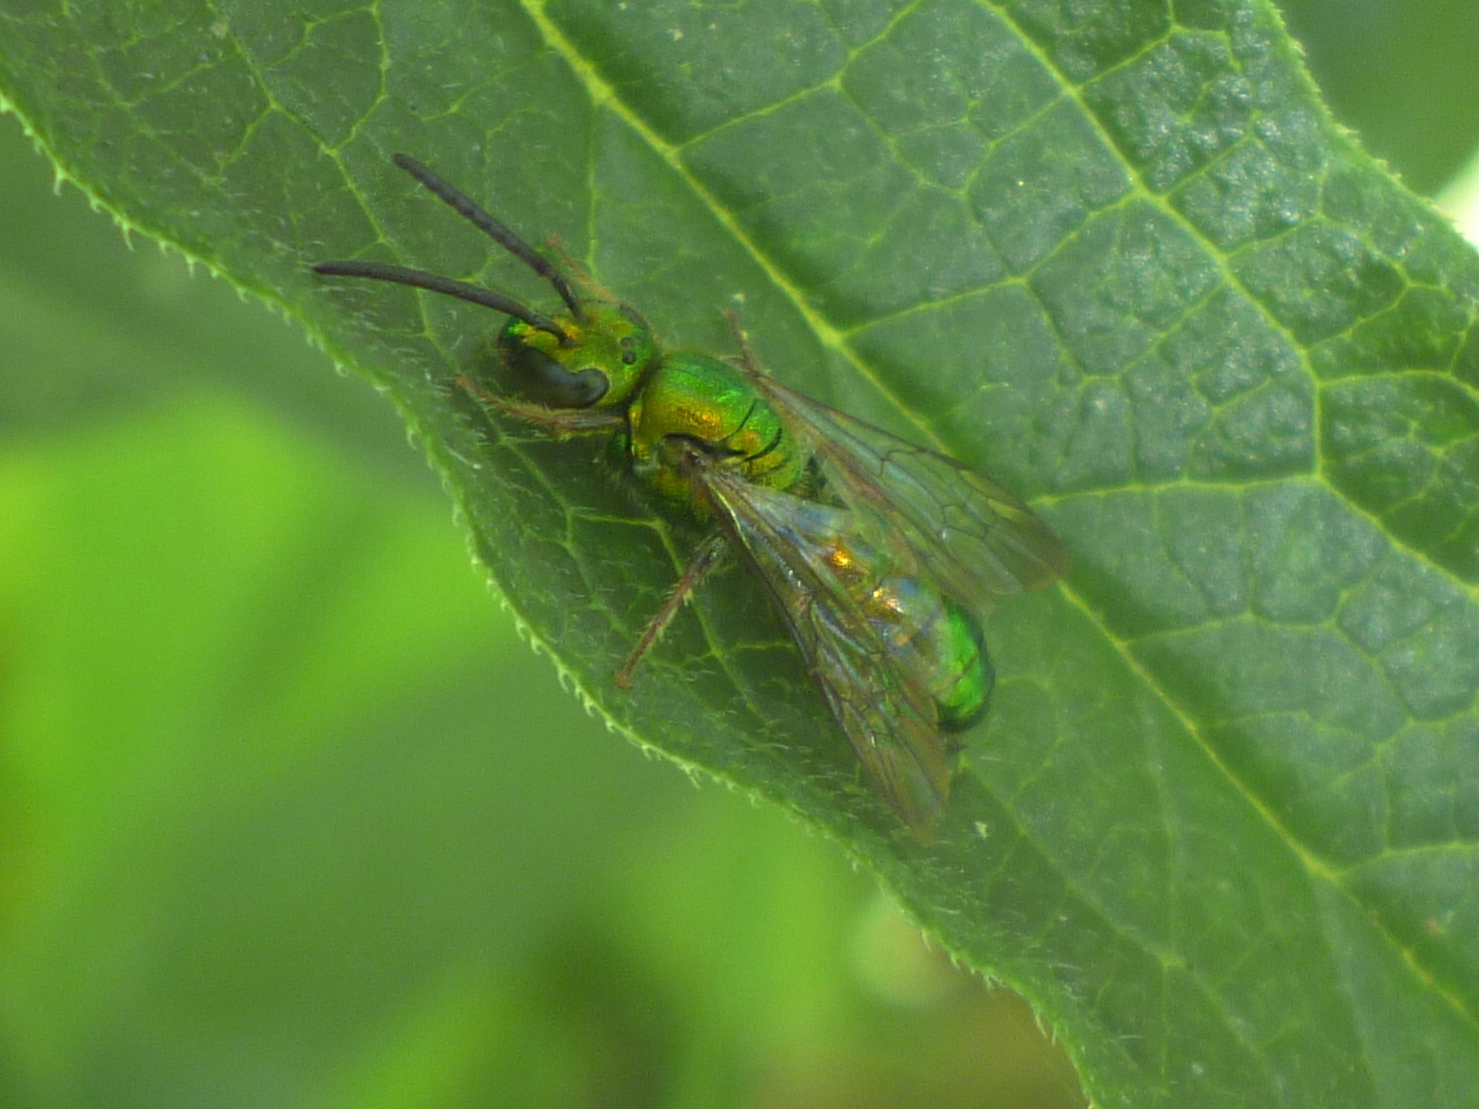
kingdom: Animalia
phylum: Arthropoda
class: Insecta
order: Hymenoptera
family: Halictidae
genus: Augochlora
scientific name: Augochlora pura
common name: Pure green sweat bee
